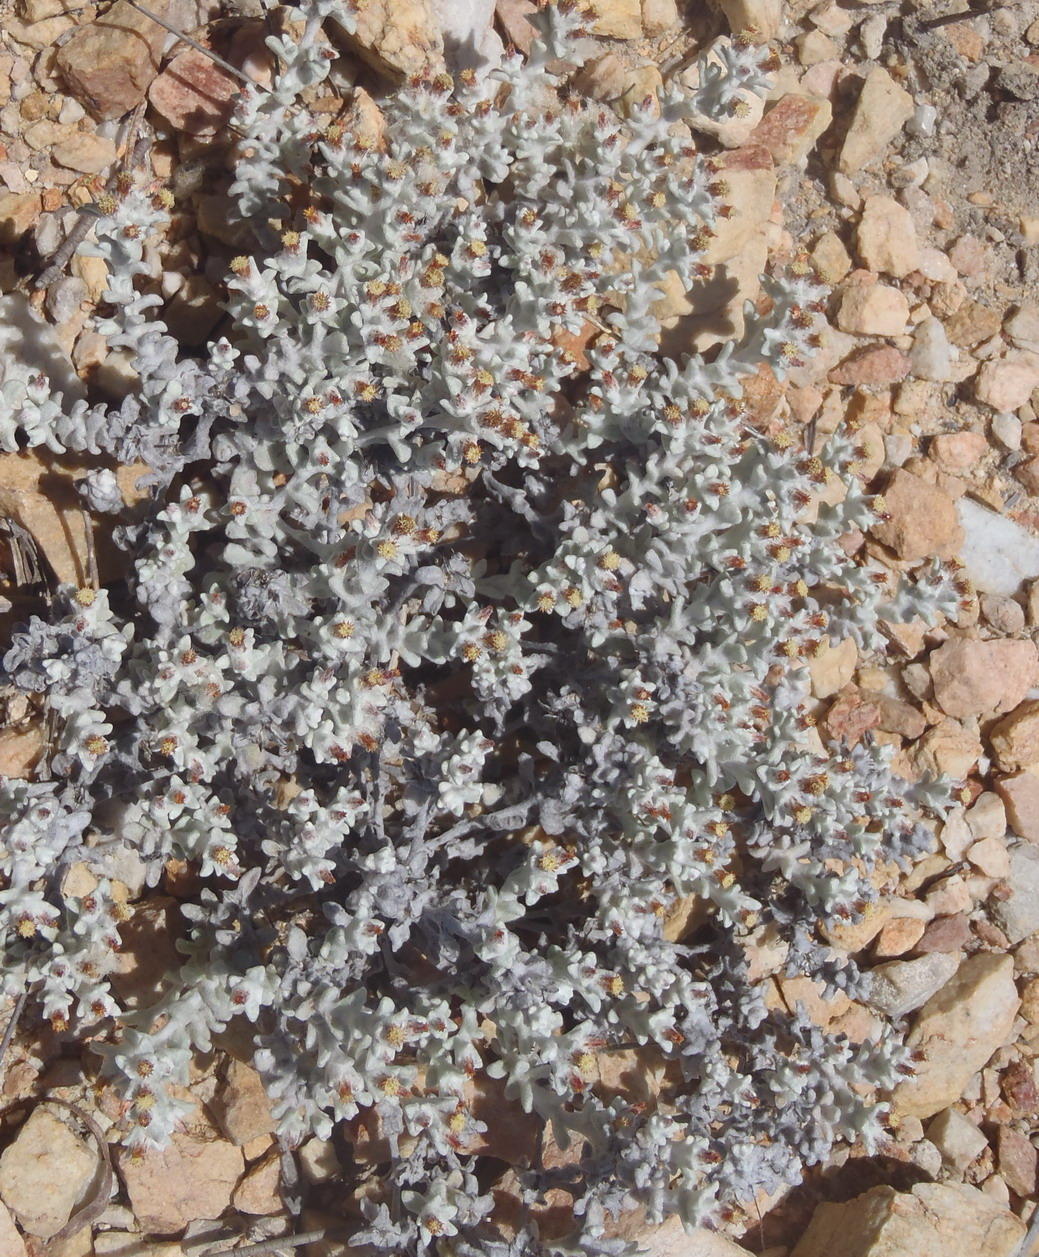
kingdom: Plantae
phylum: Tracheophyta
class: Magnoliopsida
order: Asterales
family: Asteraceae
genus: Helichrysum
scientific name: Helichrysum tinctum
